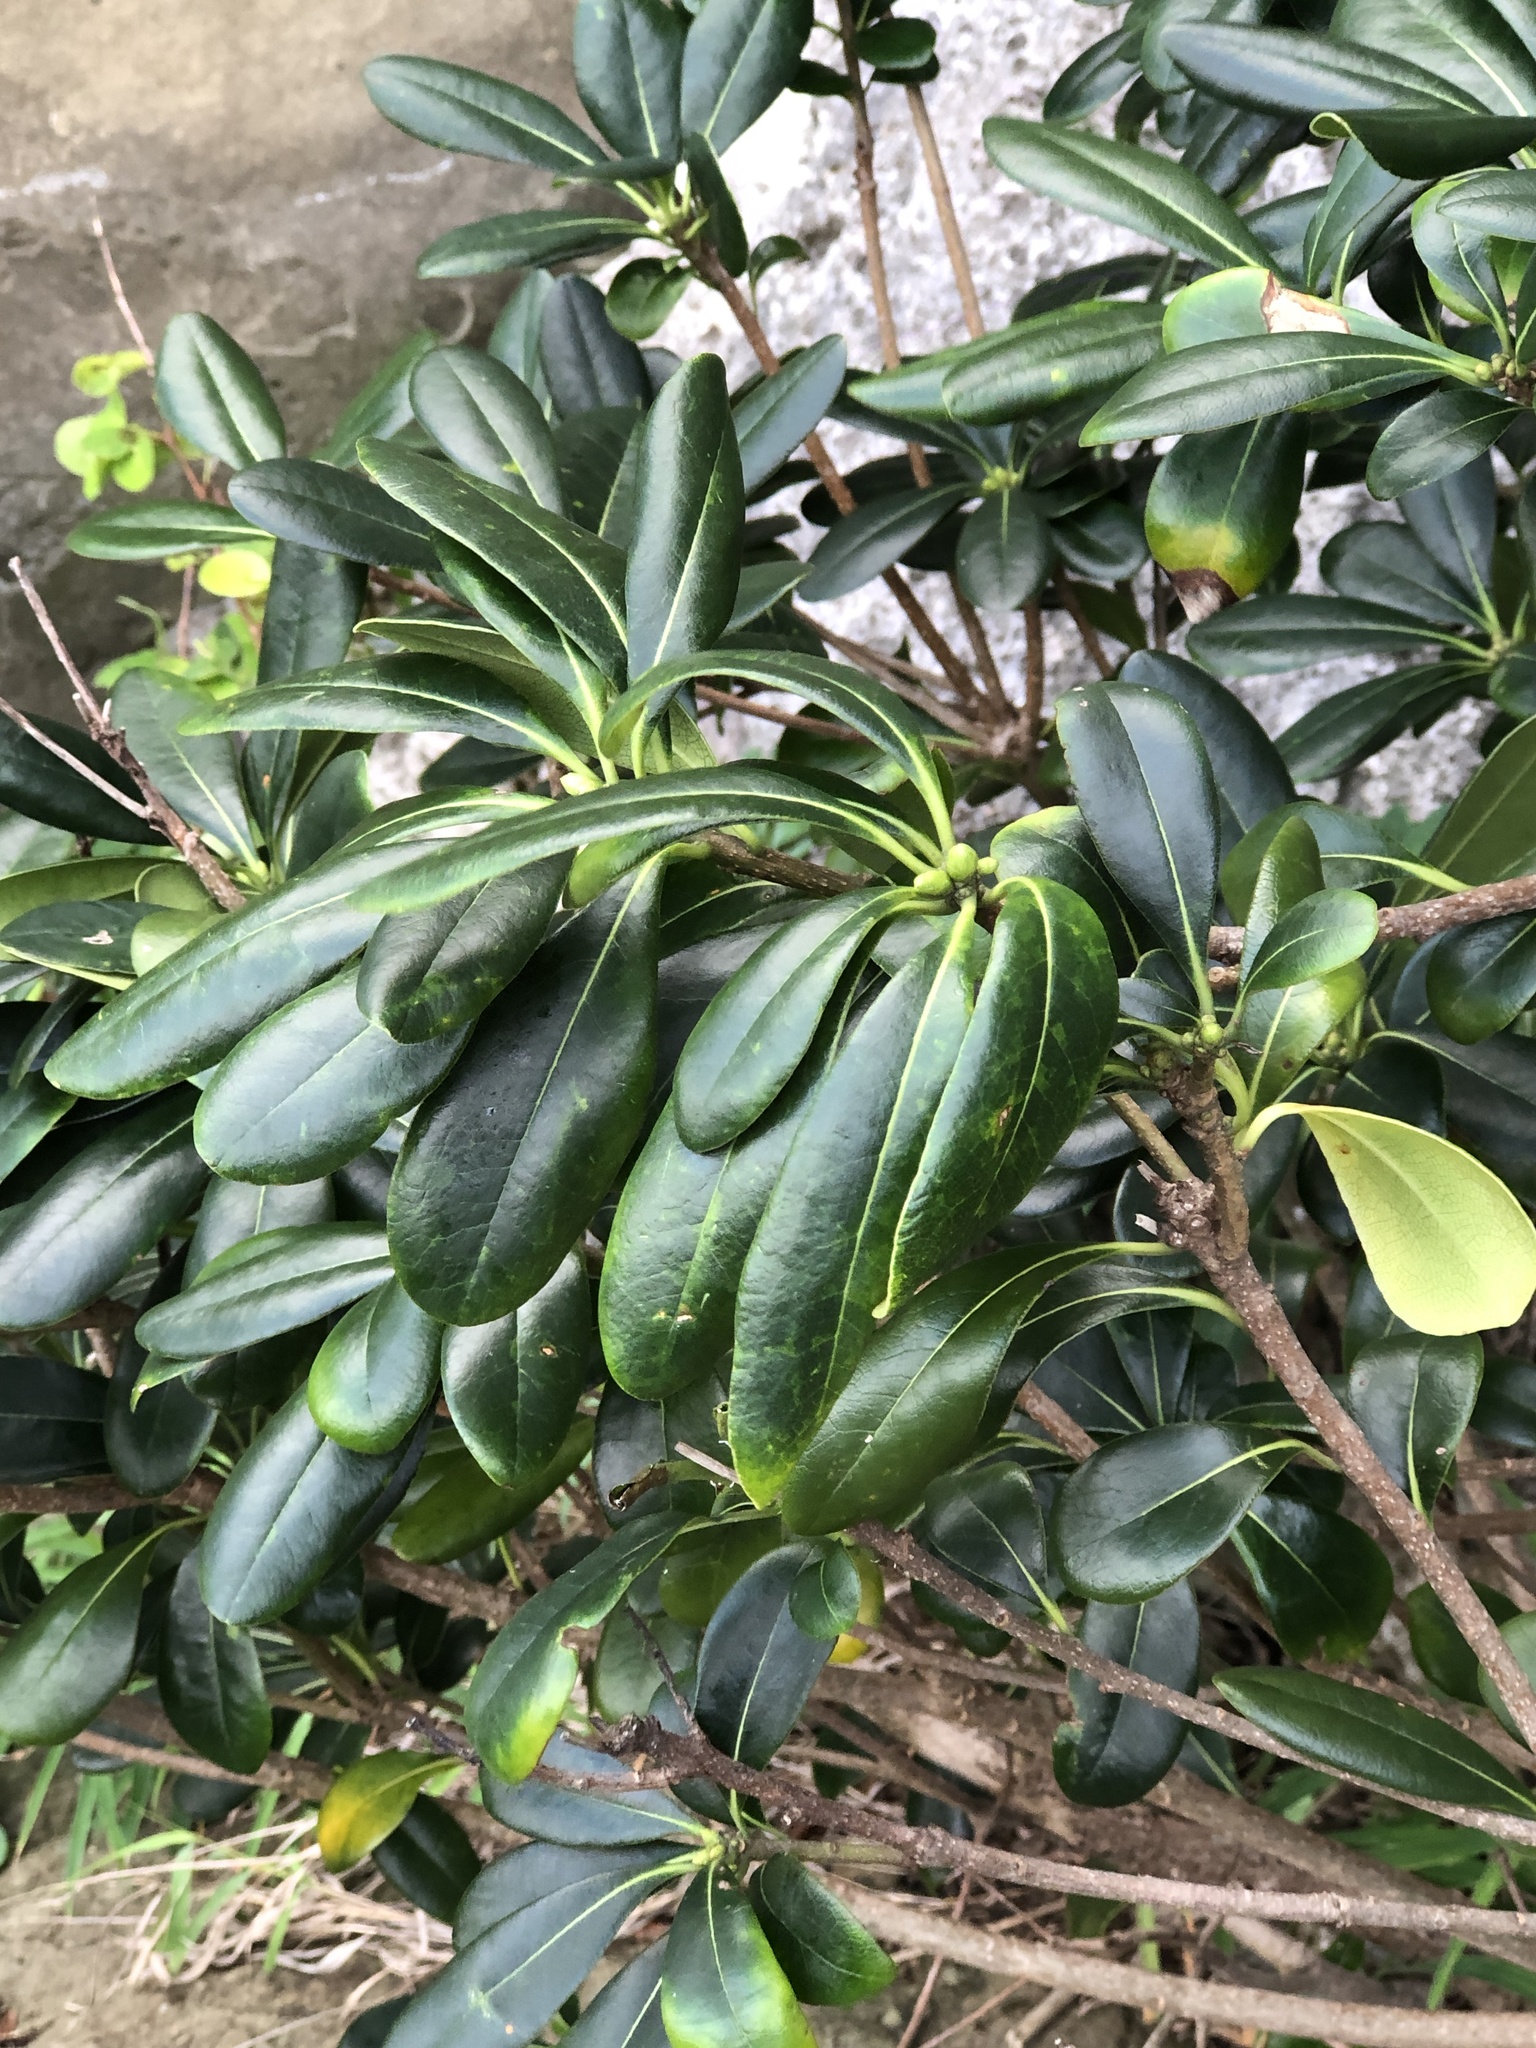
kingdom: Plantae
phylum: Tracheophyta
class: Magnoliopsida
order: Apiales
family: Pittosporaceae
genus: Pittosporum
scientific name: Pittosporum tobira
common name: Japanese cheesewood
